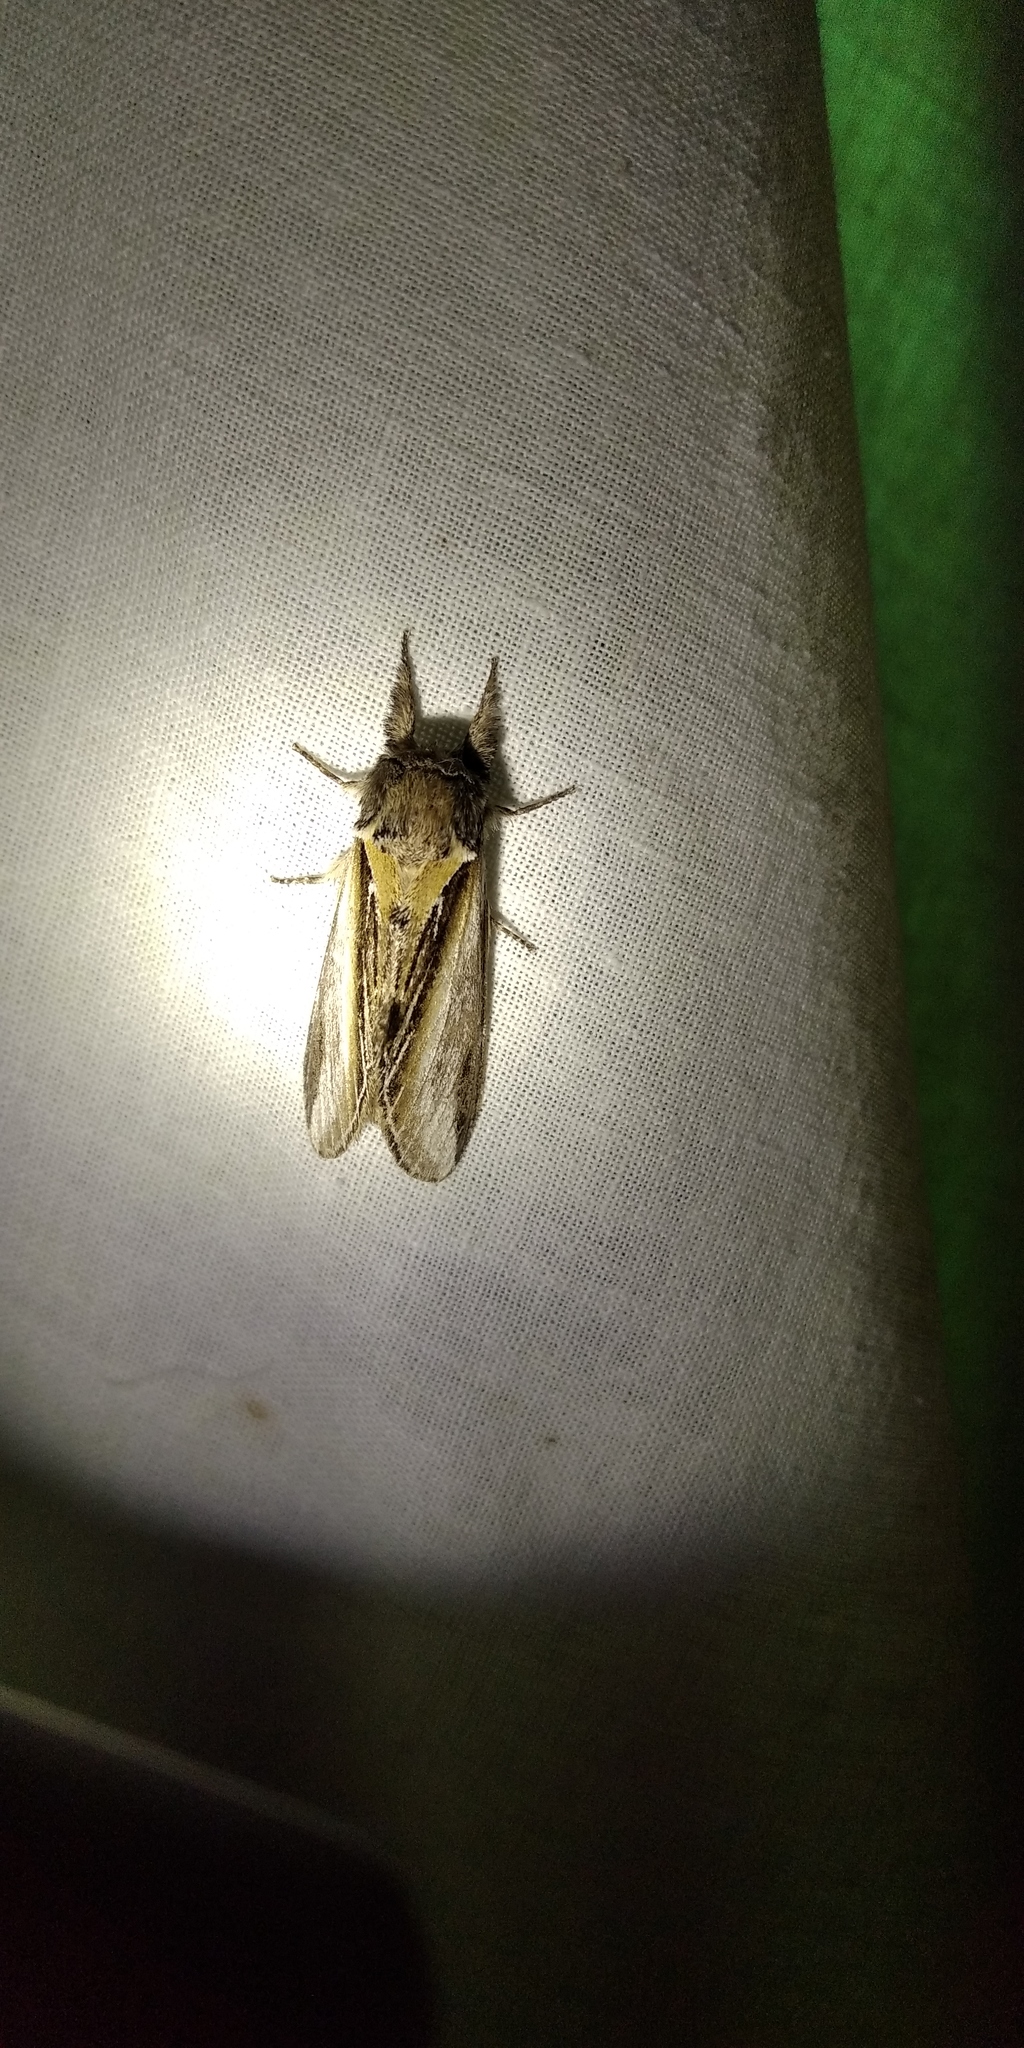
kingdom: Animalia
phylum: Arthropoda
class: Insecta
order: Lepidoptera
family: Notodontidae
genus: Pheosia
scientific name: Pheosia tremula
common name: Swallow prominent
